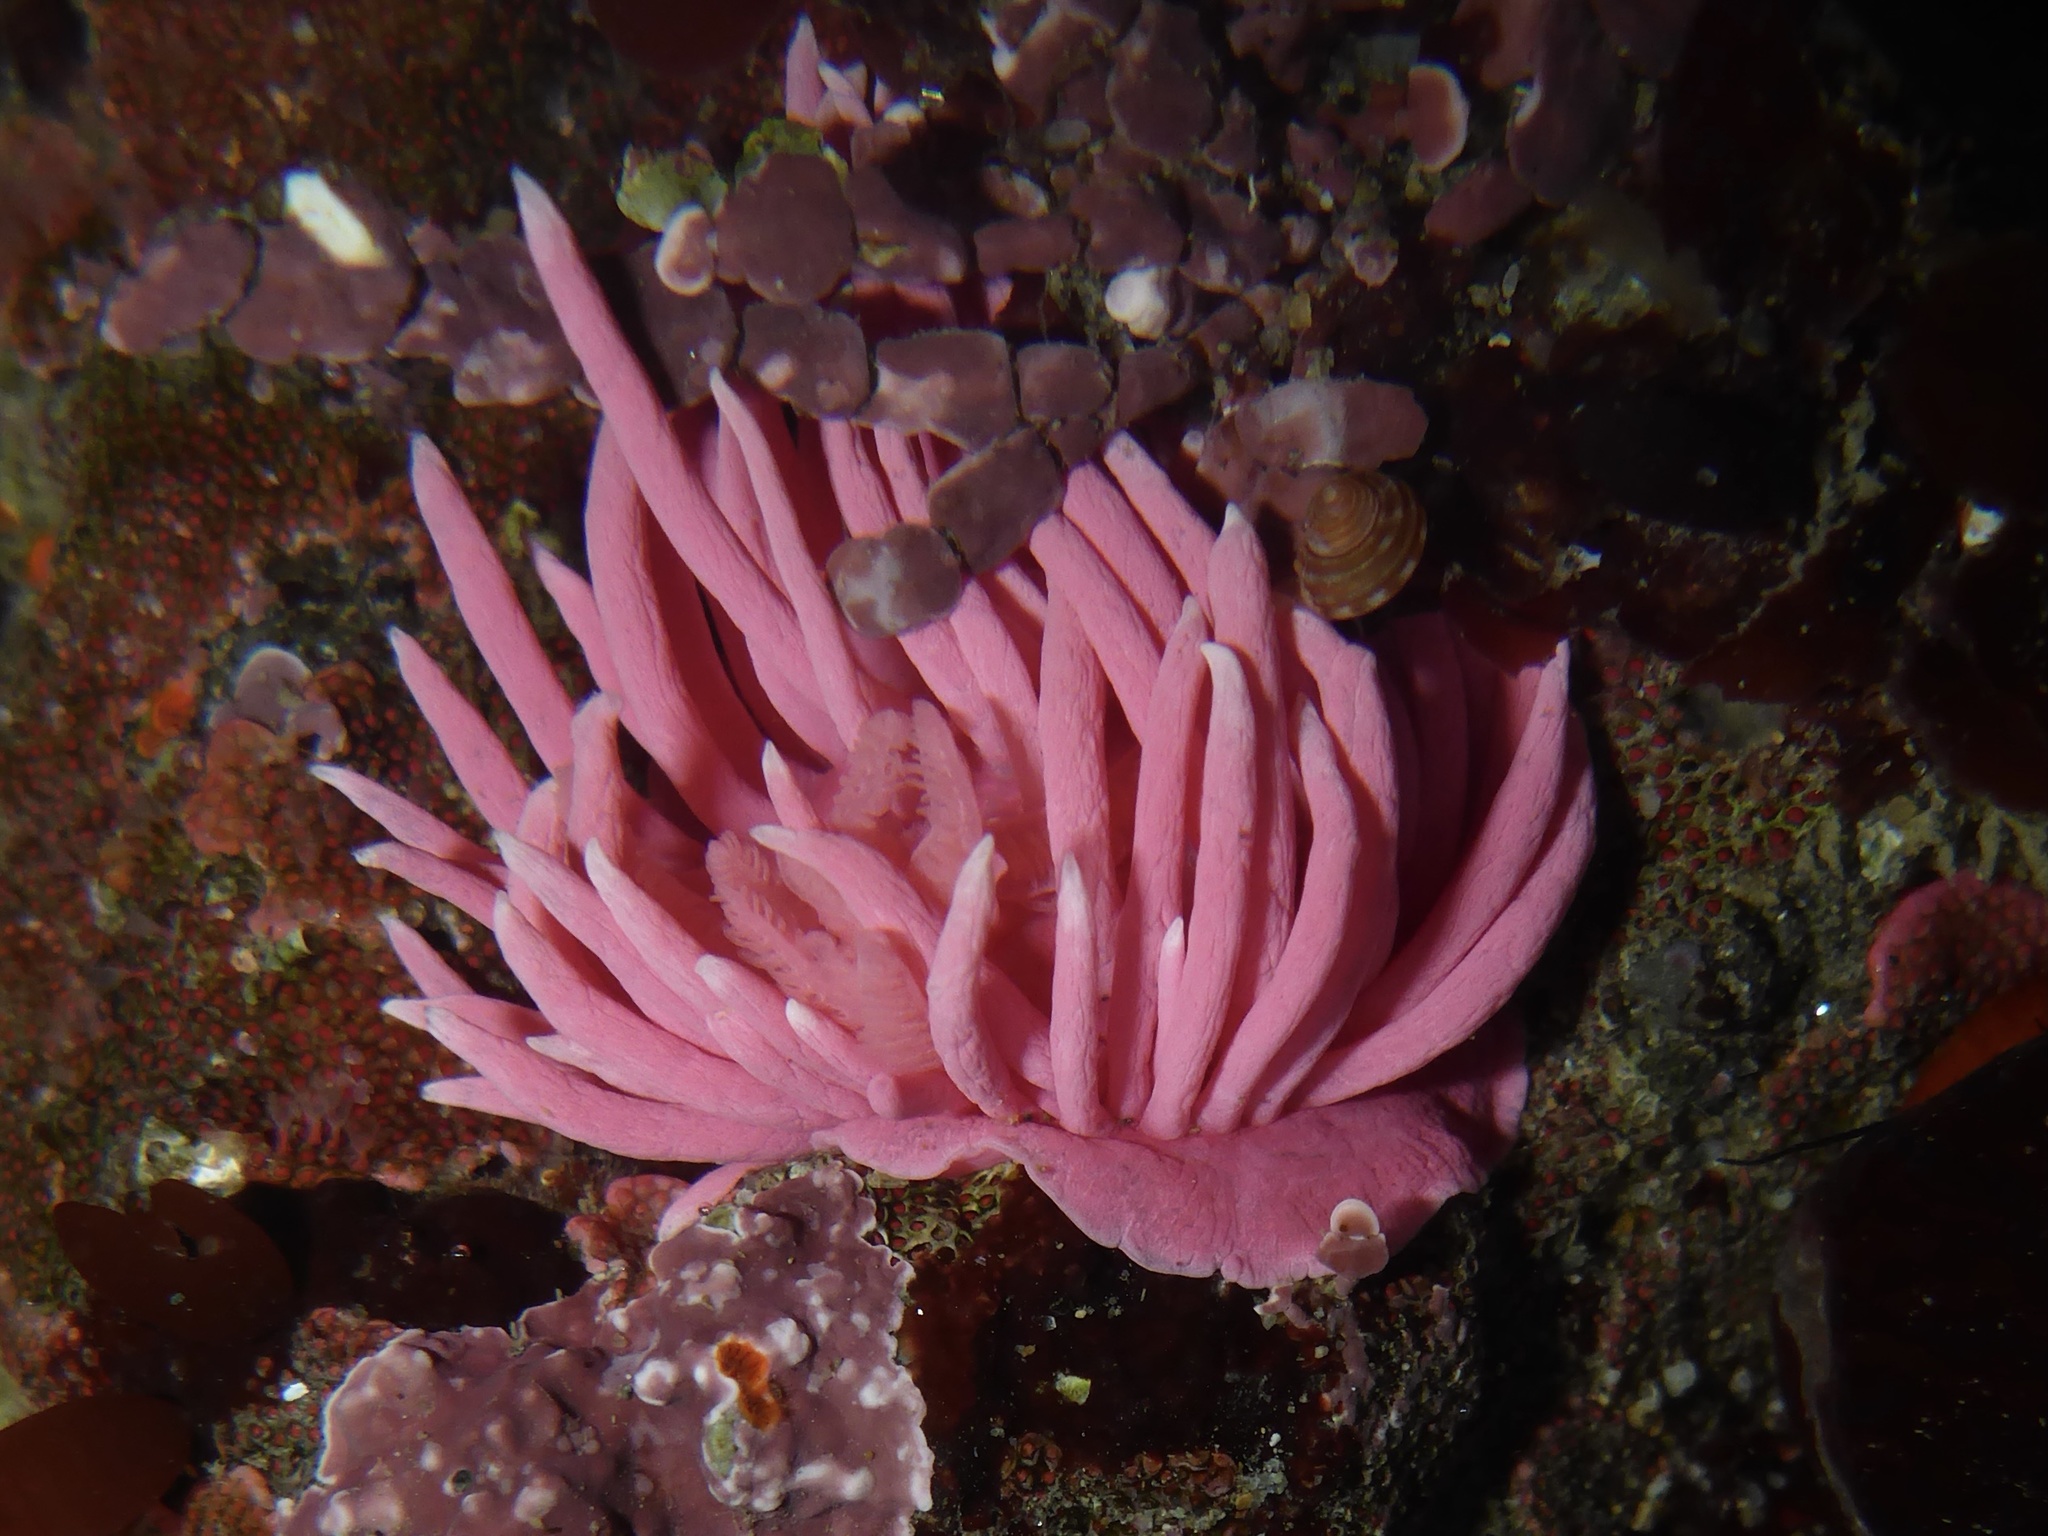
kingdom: Animalia
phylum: Mollusca
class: Gastropoda
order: Nudibranchia
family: Goniodorididae
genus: Okenia
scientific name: Okenia
